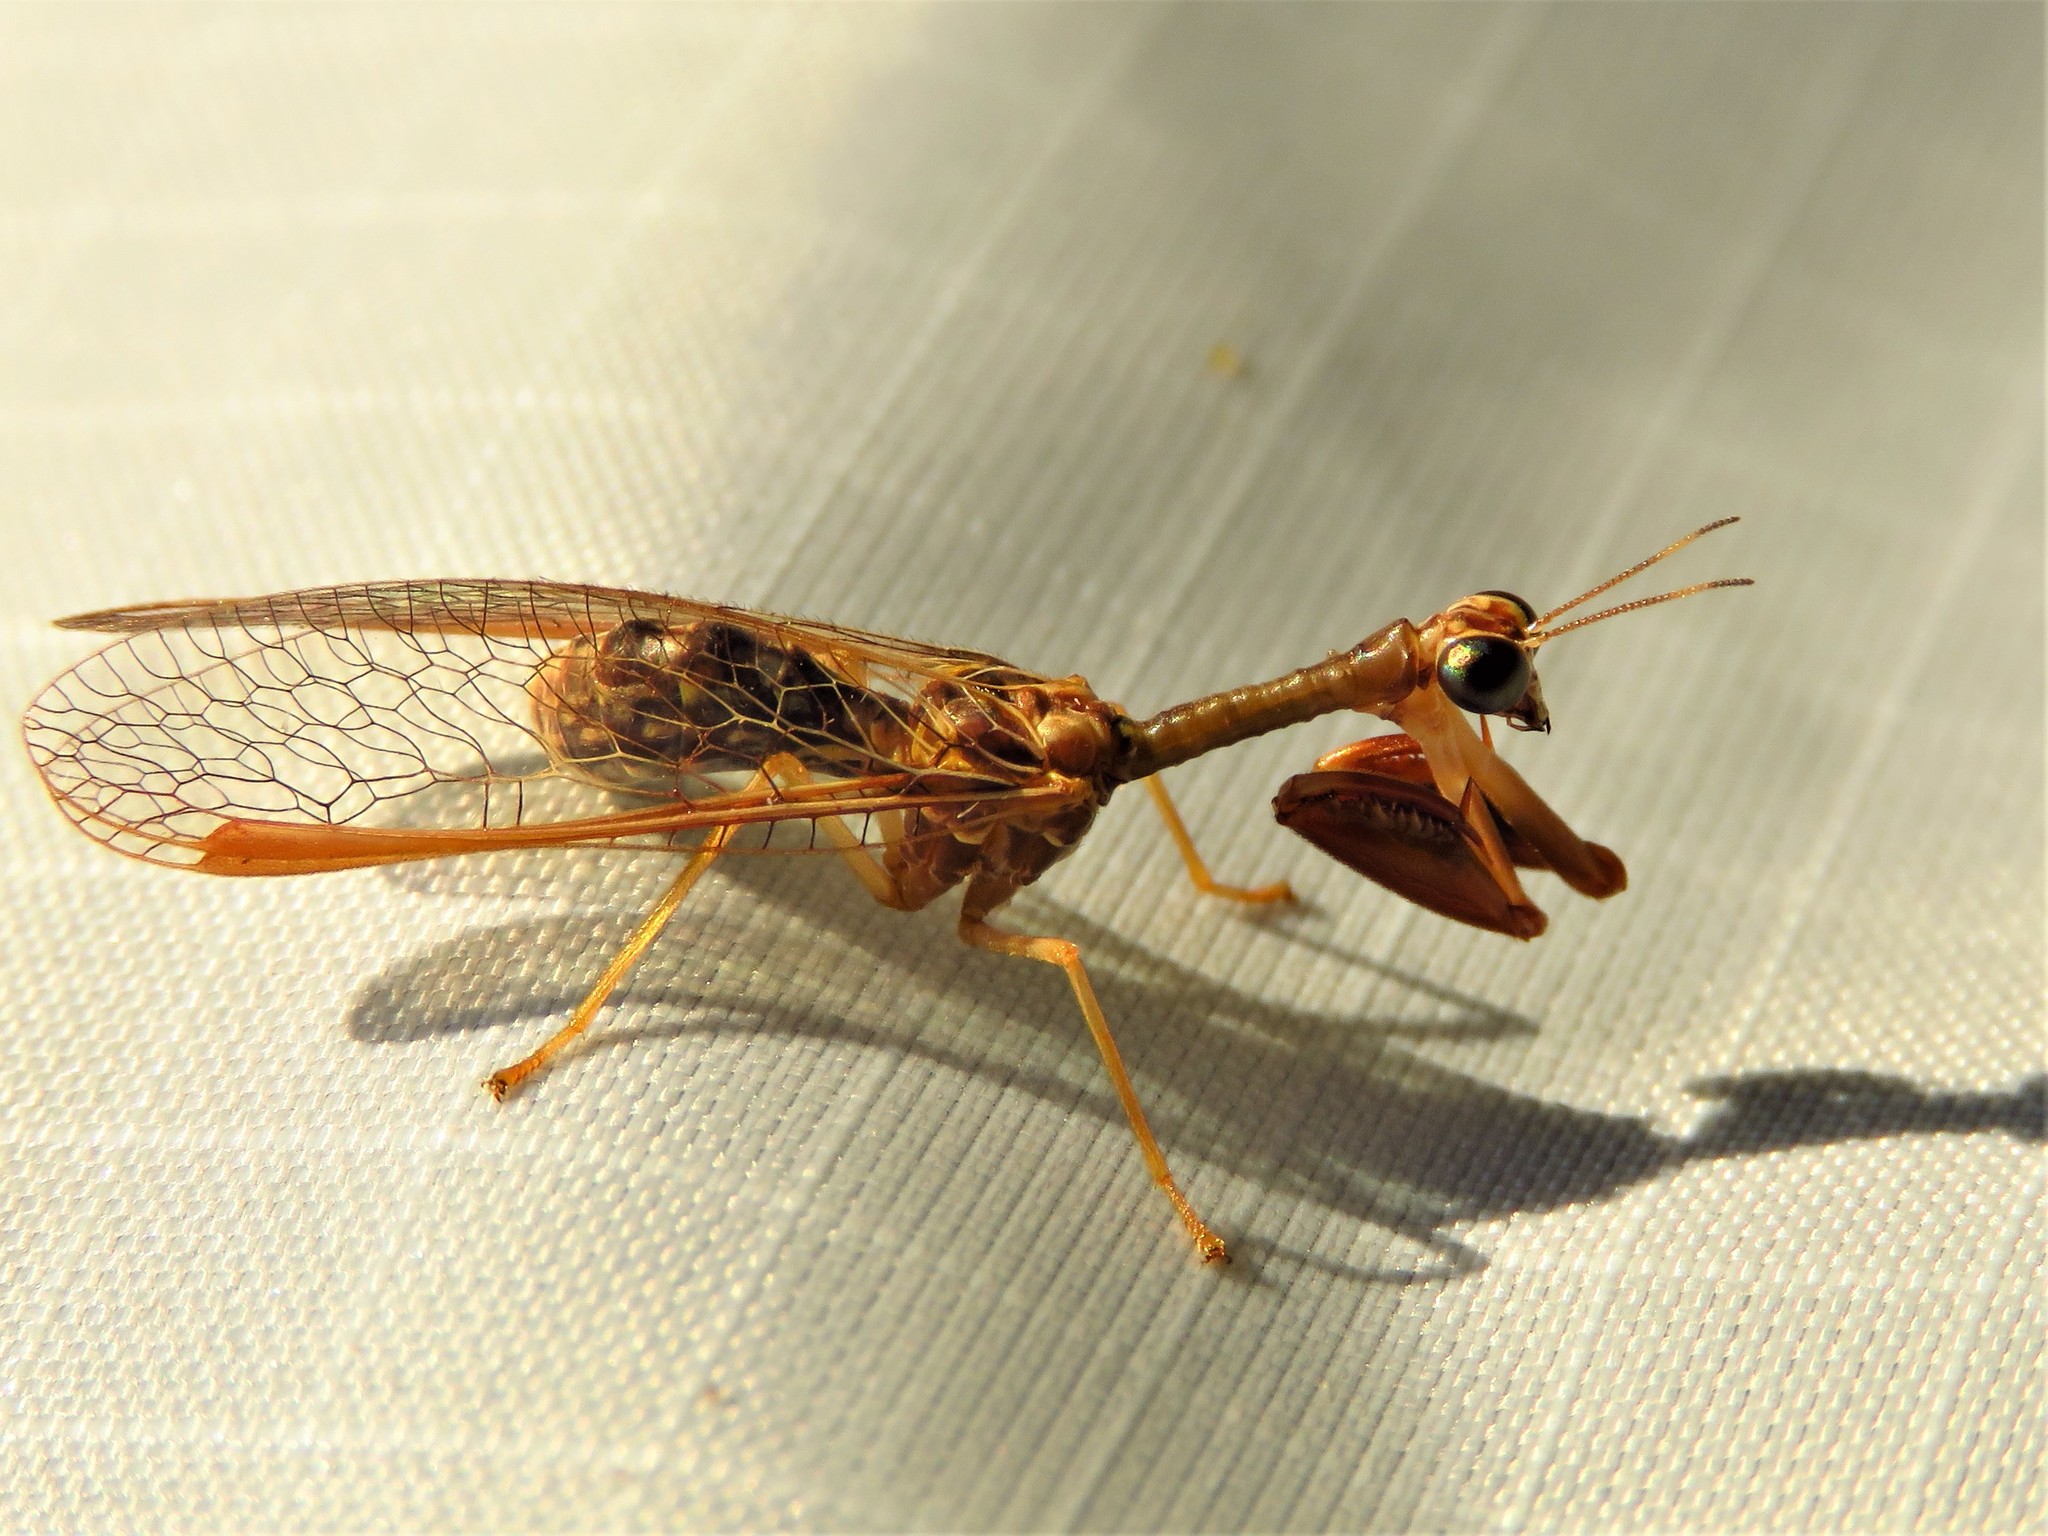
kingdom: Animalia
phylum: Arthropoda
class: Insecta
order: Neuroptera
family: Mantispidae
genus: Dicromantispa
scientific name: Dicromantispa sayi
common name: Say's mantidfly
